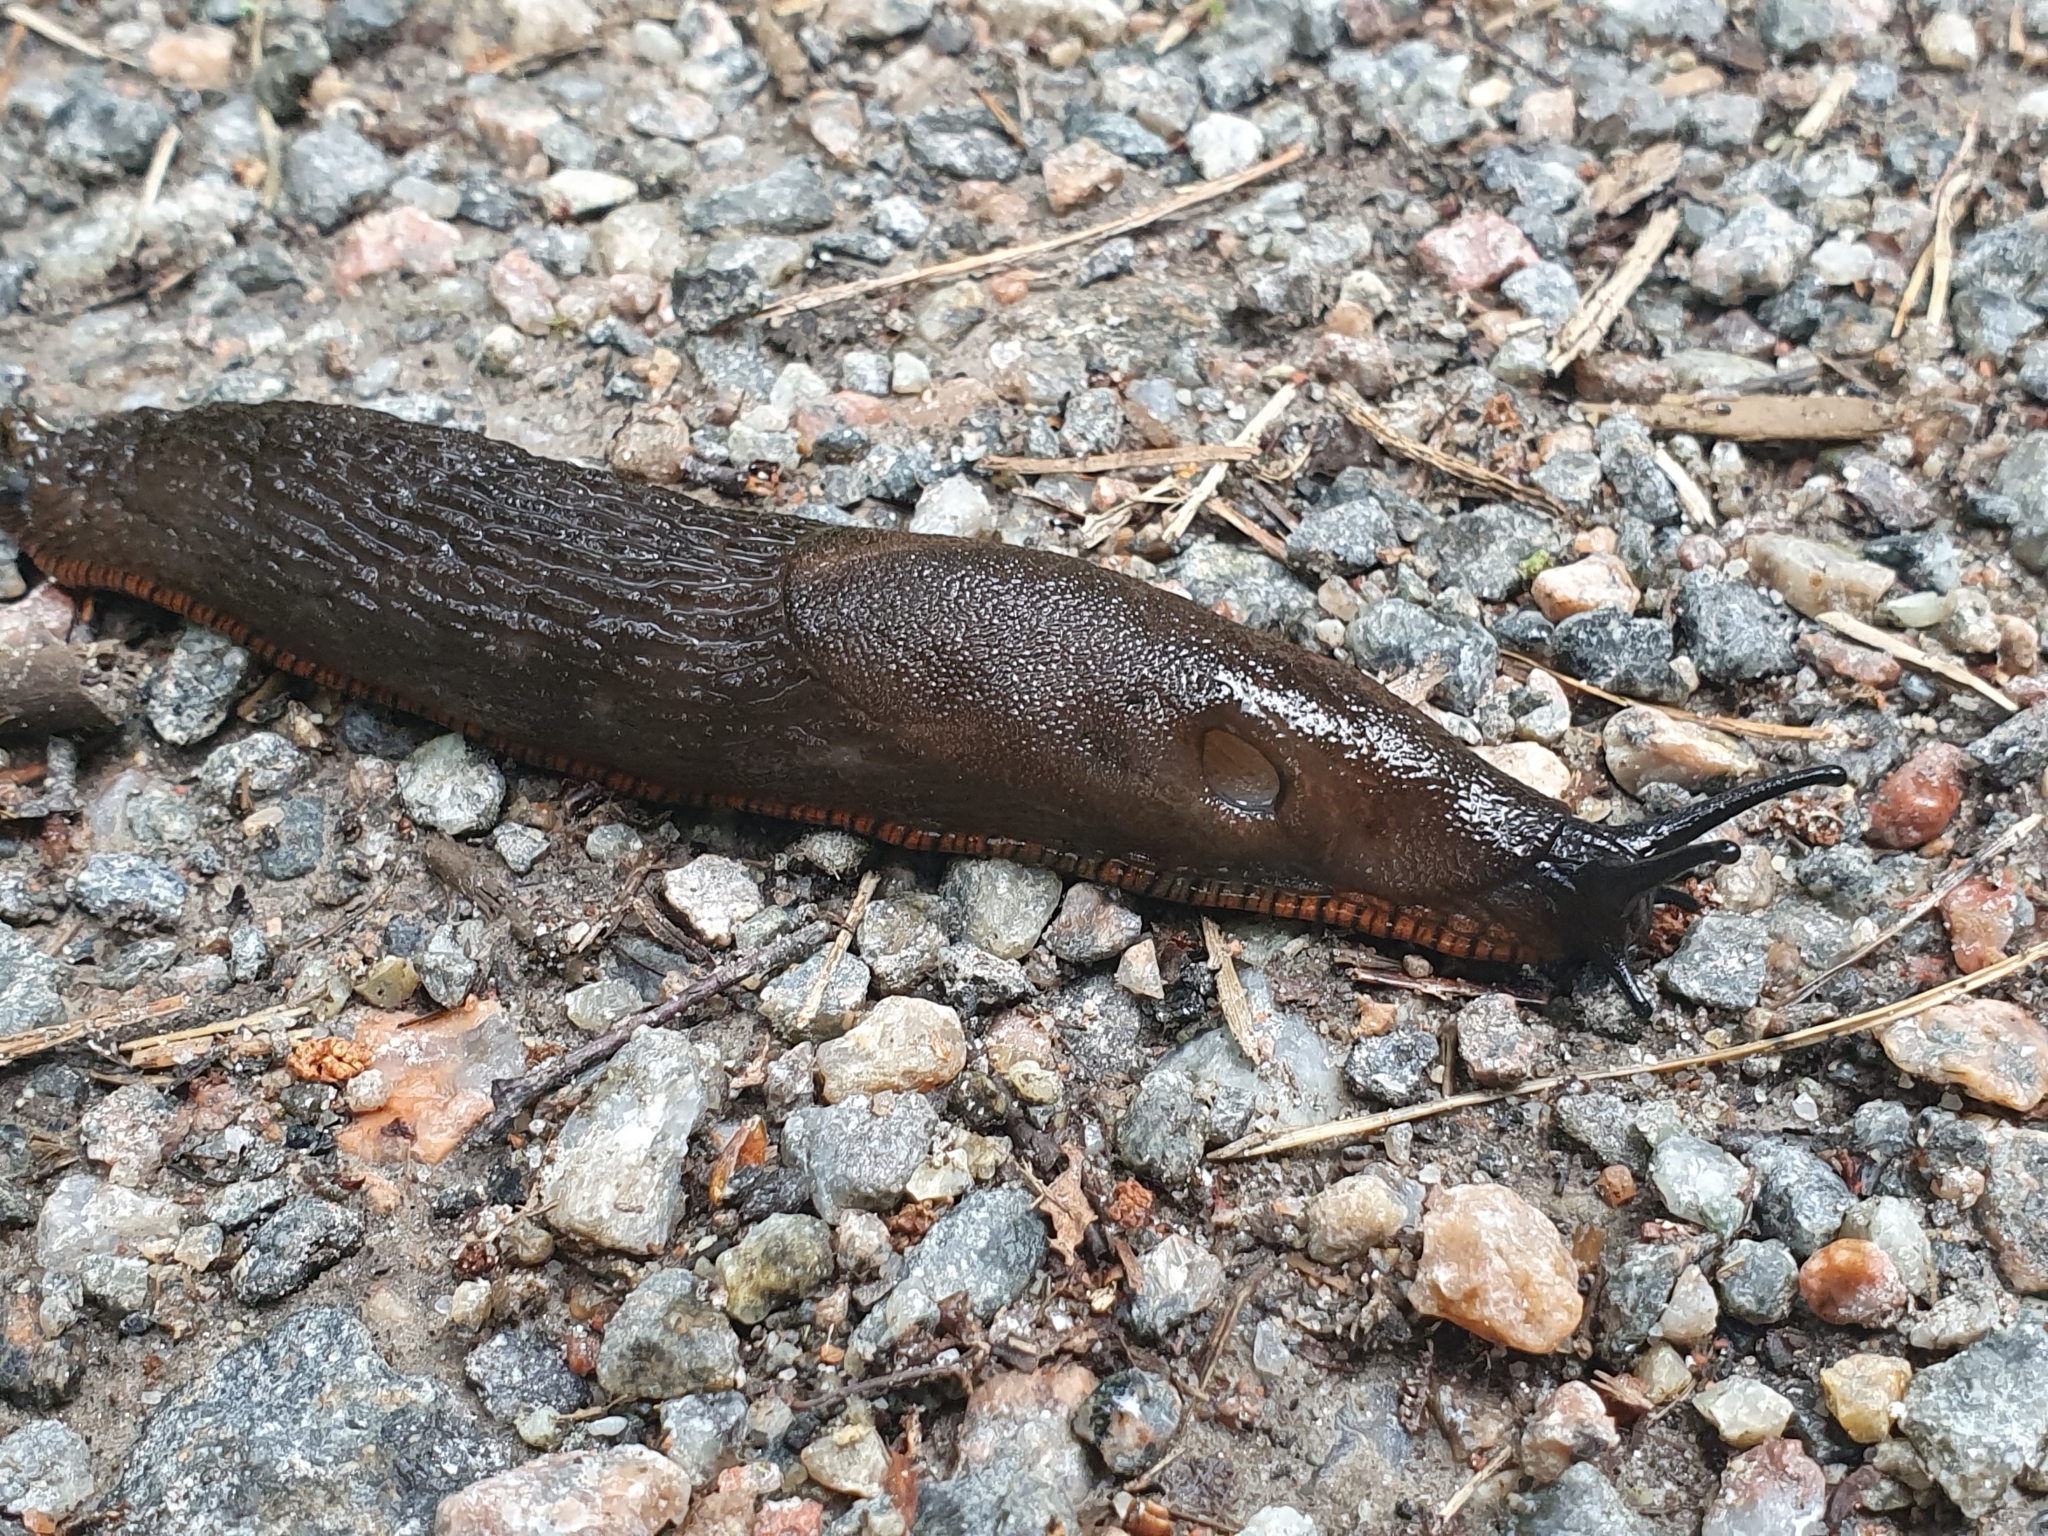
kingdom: Animalia
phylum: Mollusca
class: Gastropoda
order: Stylommatophora
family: Arionidae
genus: Arion
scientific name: Arion vulgaris
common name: Lusitanian slug
